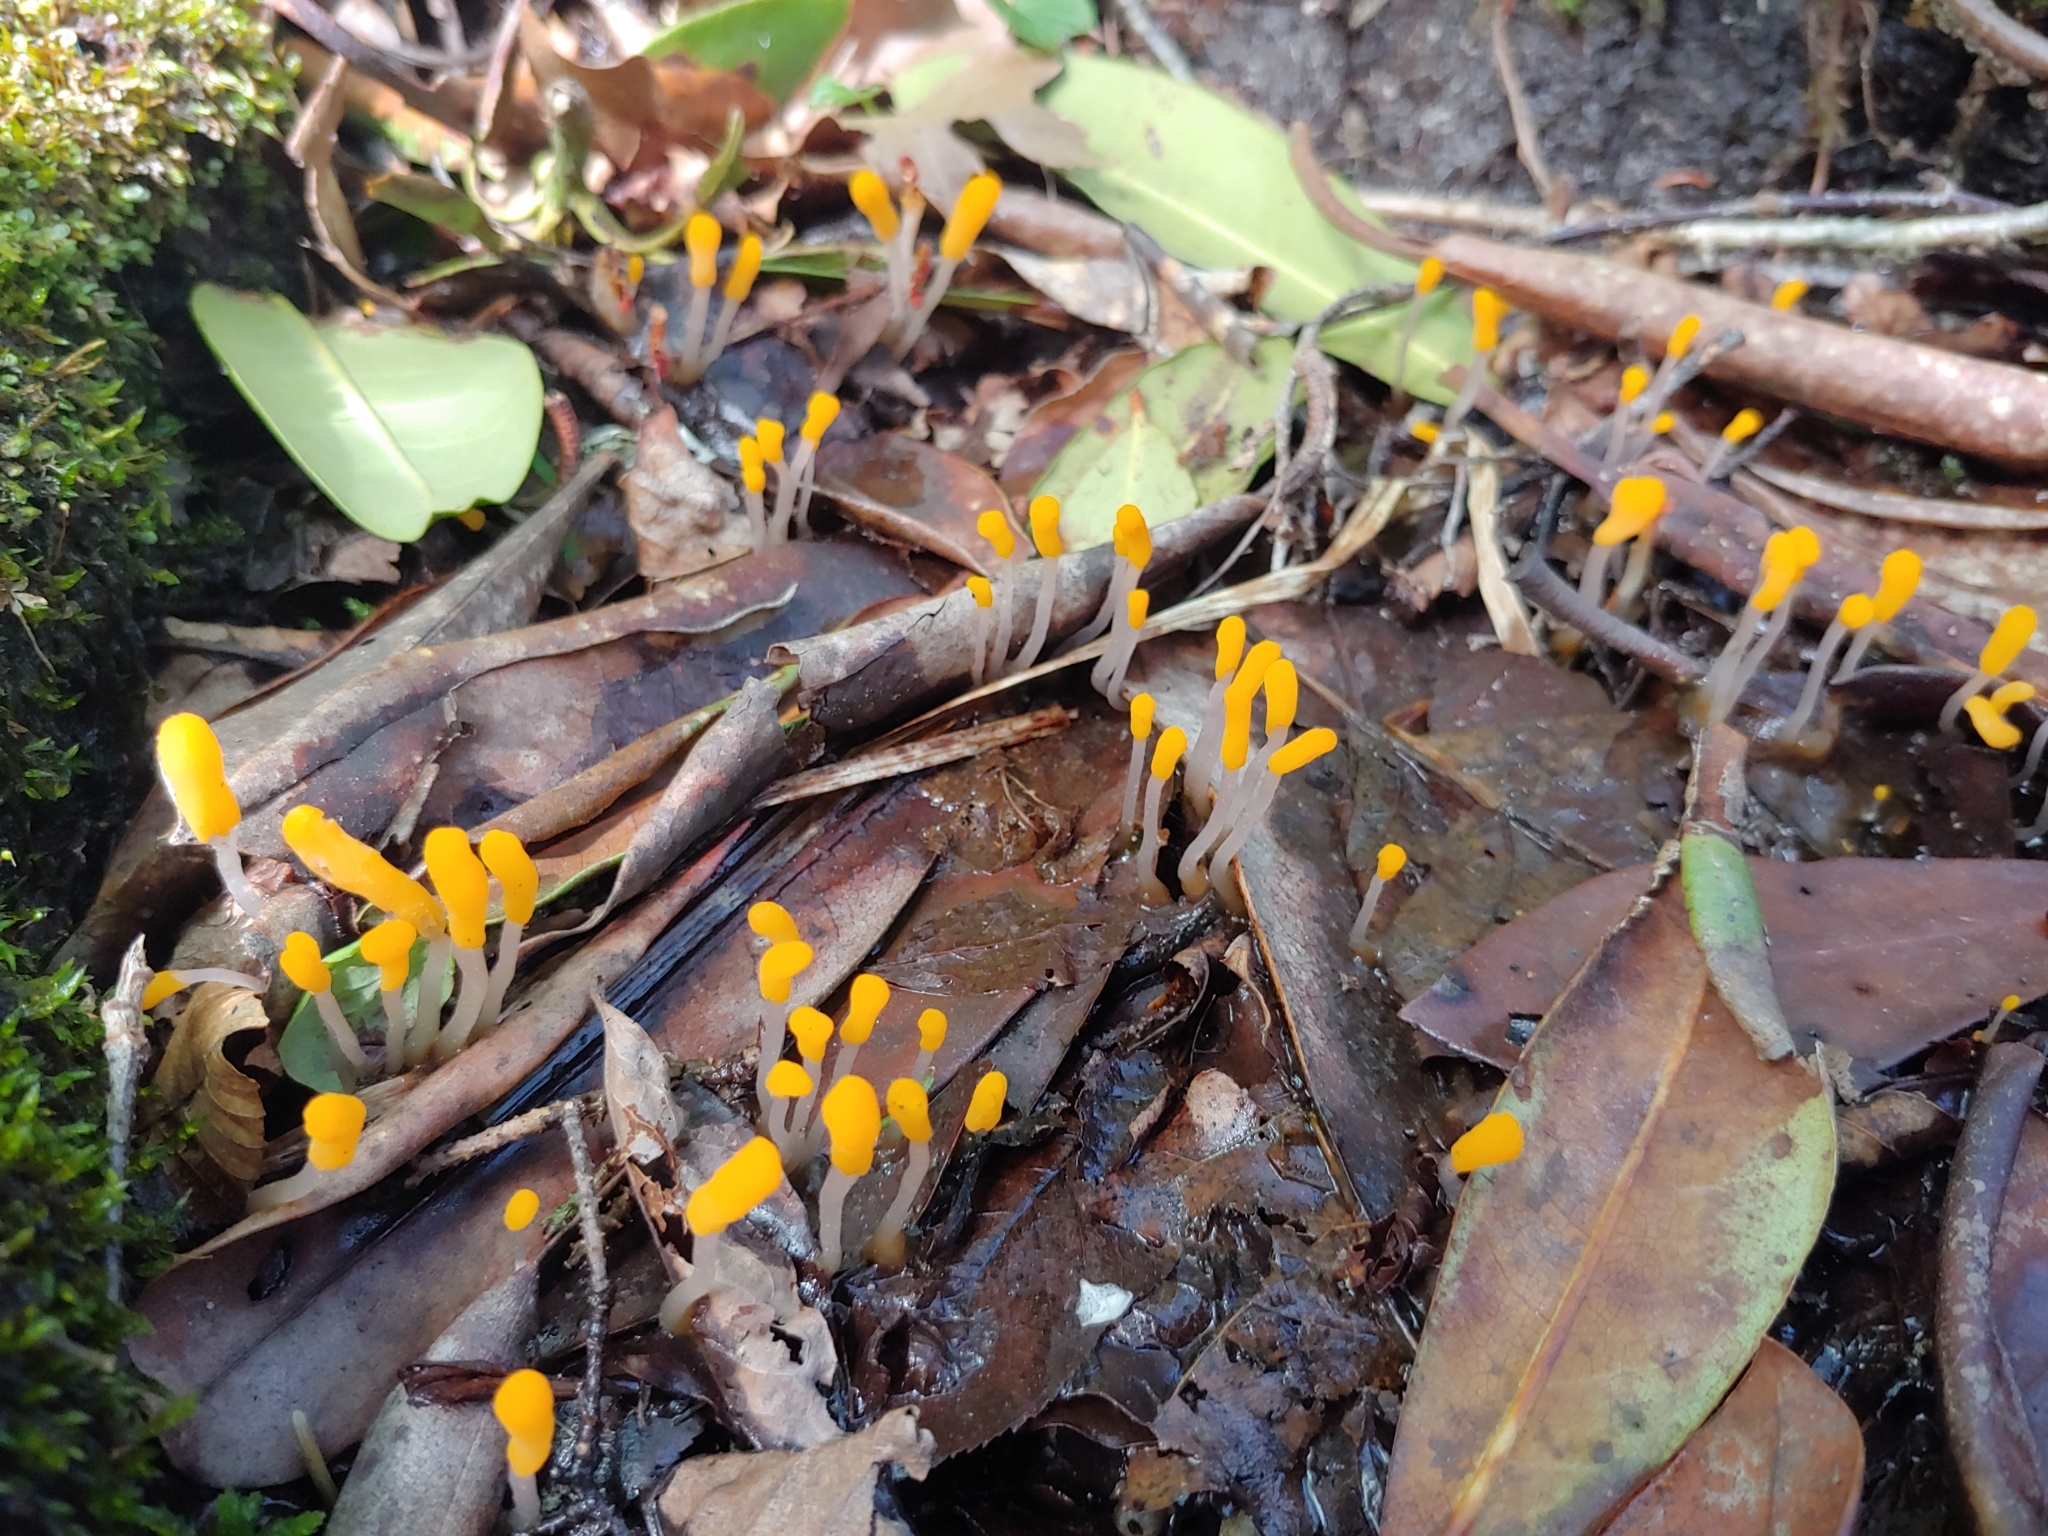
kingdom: Fungi
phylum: Ascomycota
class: Leotiomycetes
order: Helotiales
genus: Mitrula
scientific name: Mitrula
